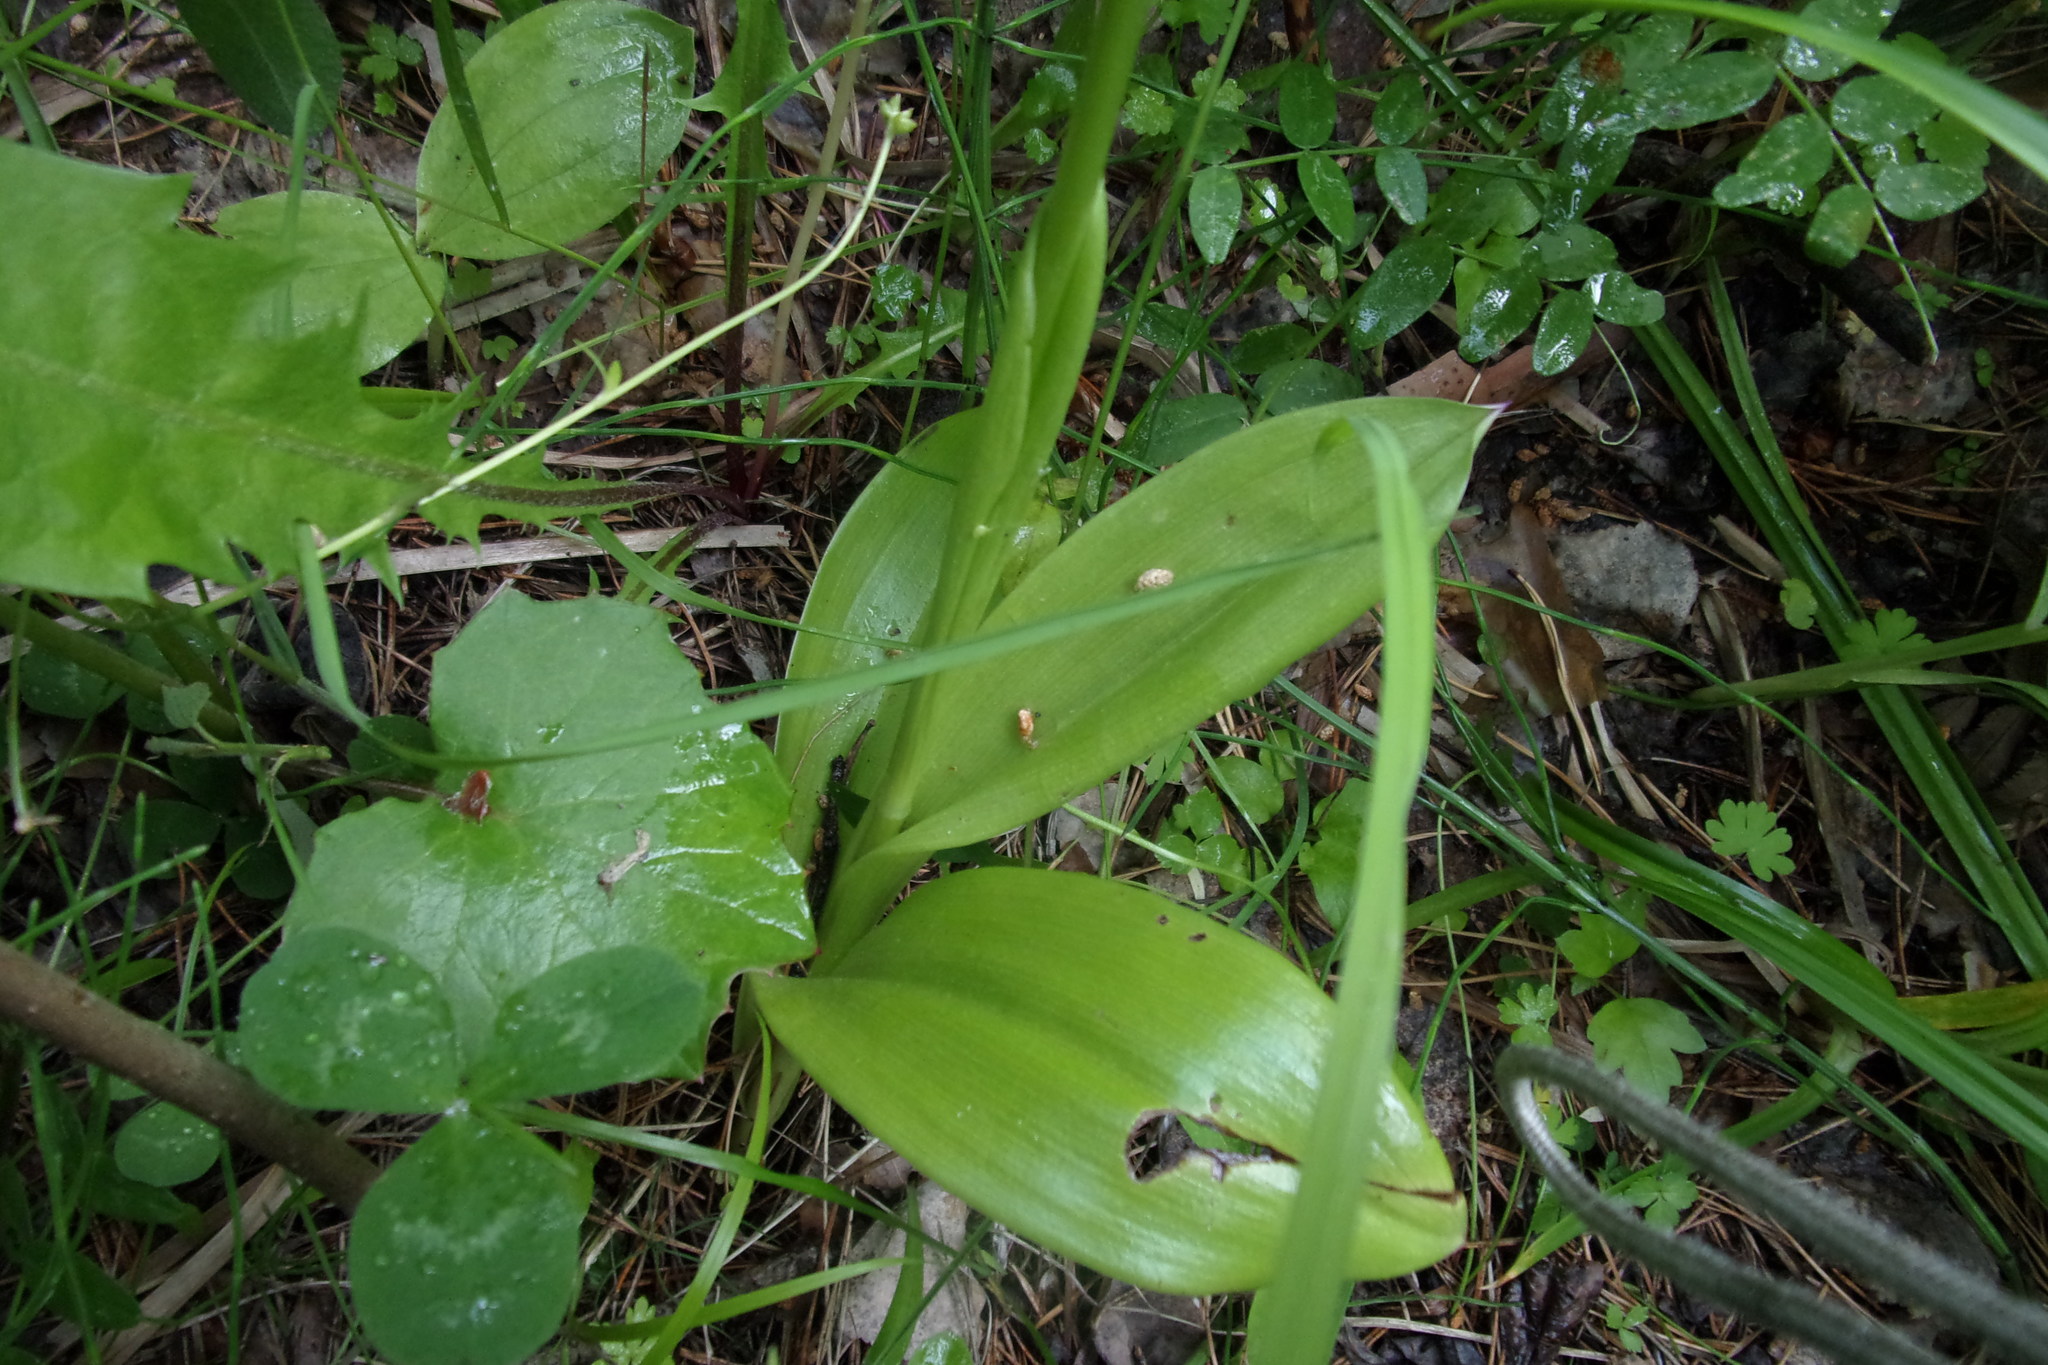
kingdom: Plantae
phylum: Tracheophyta
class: Liliopsida
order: Asparagales
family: Orchidaceae
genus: Orchis
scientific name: Orchis militaris
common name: Military orchid
